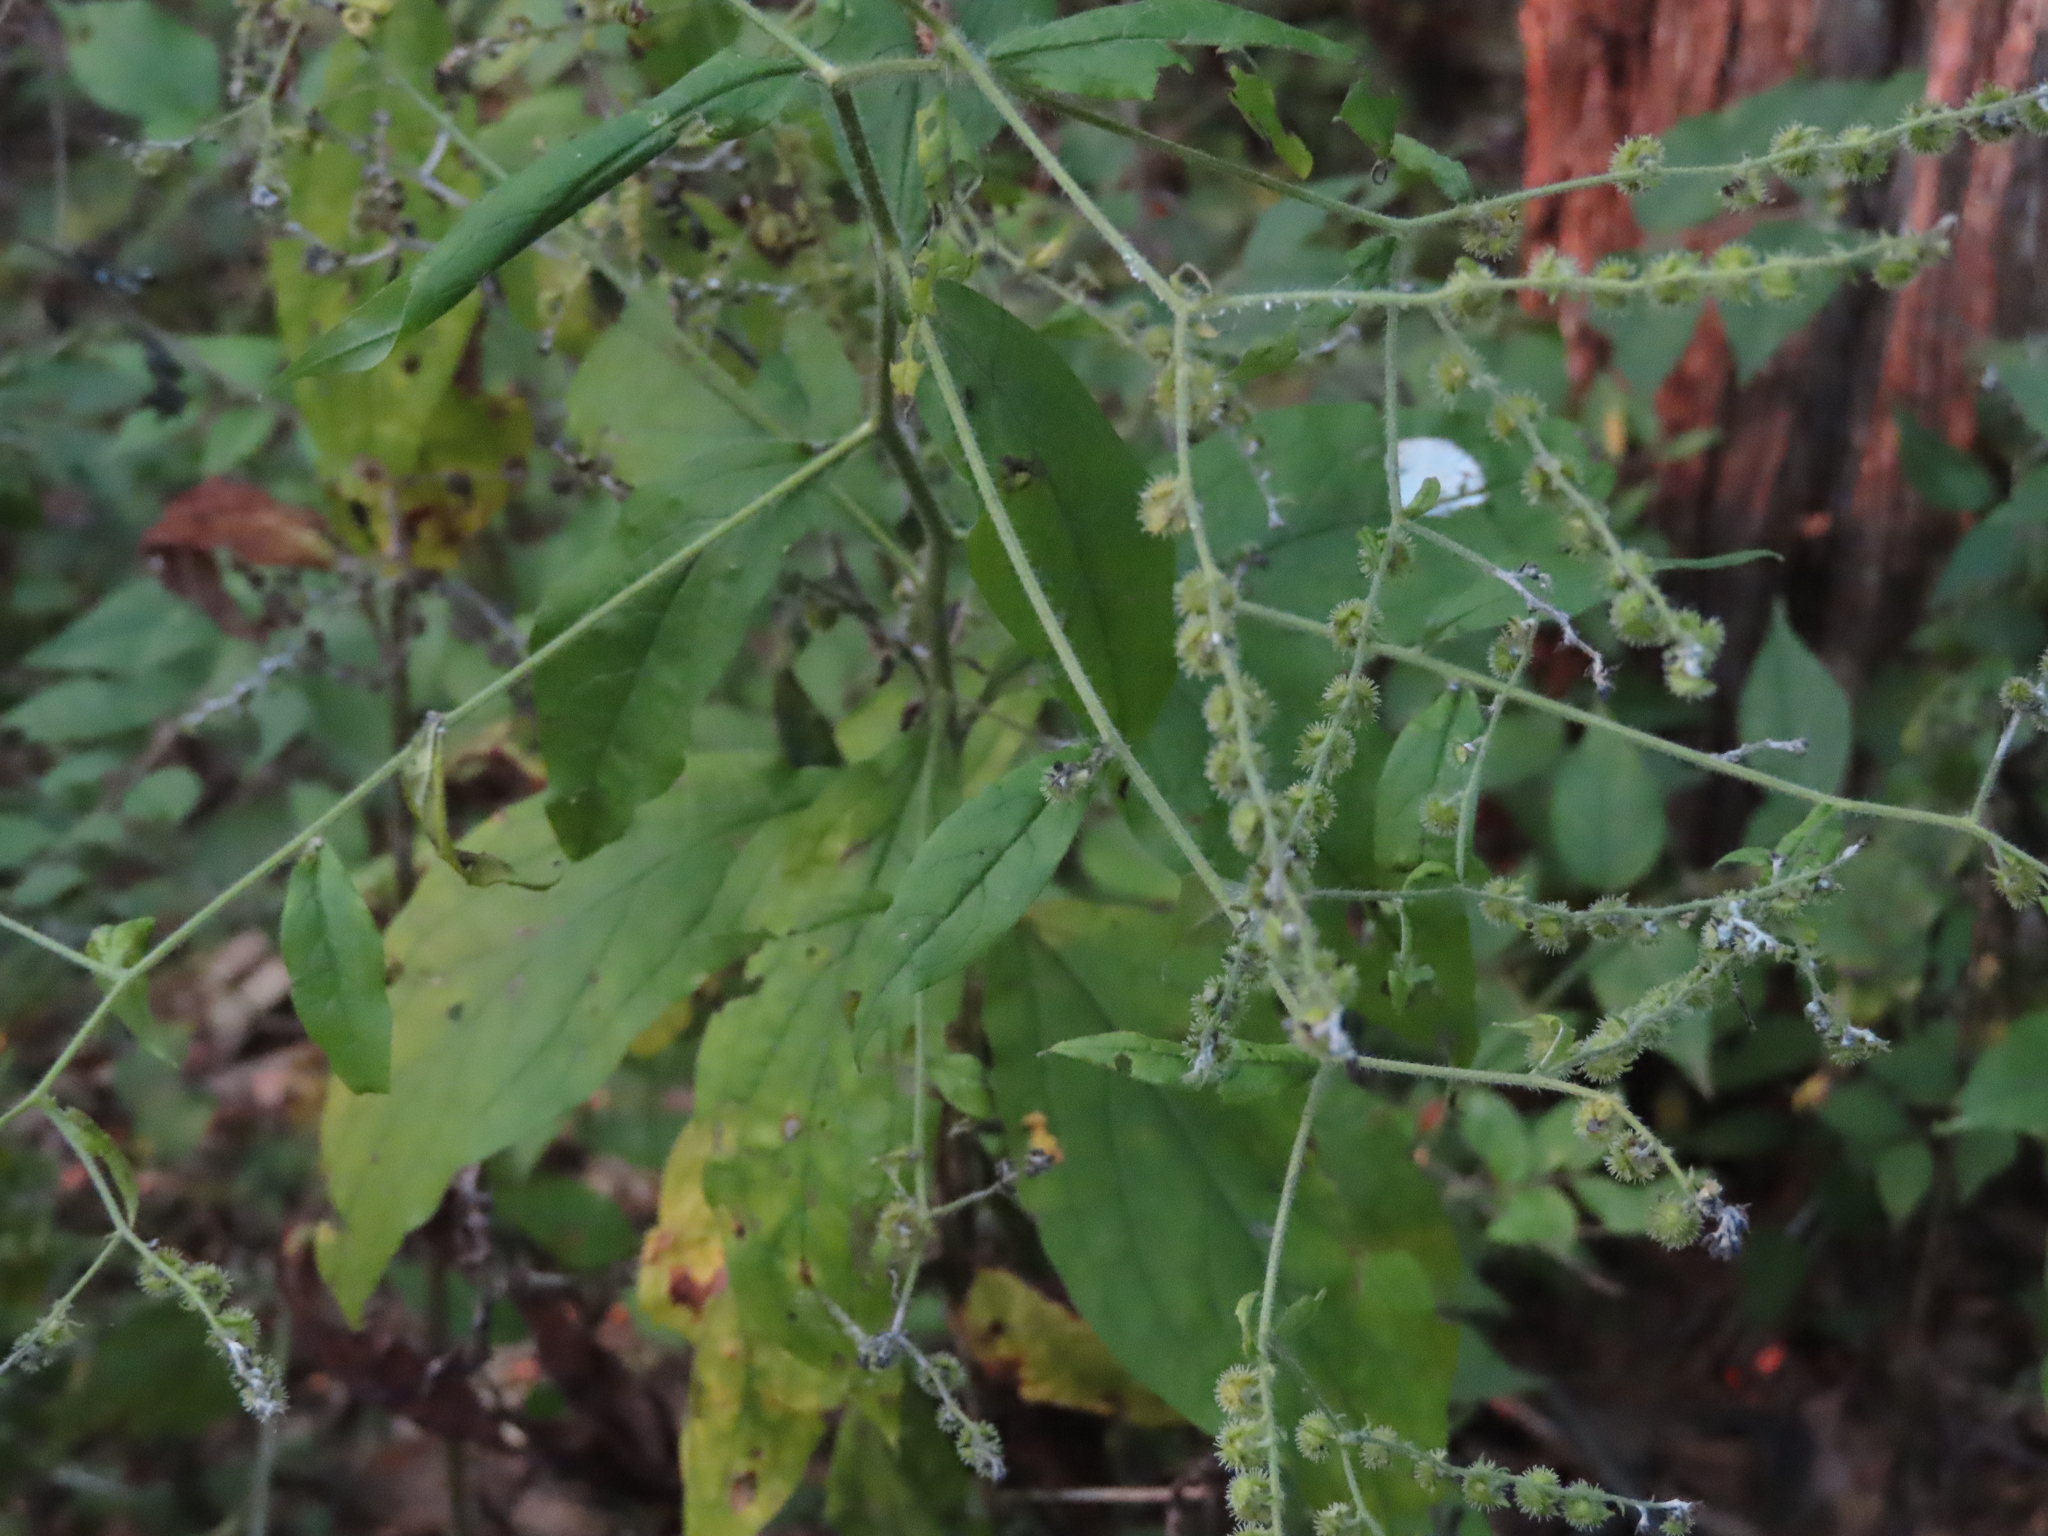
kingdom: Plantae
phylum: Tracheophyta
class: Magnoliopsida
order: Boraginales
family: Boraginaceae
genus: Hackelia
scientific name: Hackelia virginiana
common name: Beggar's-lice
